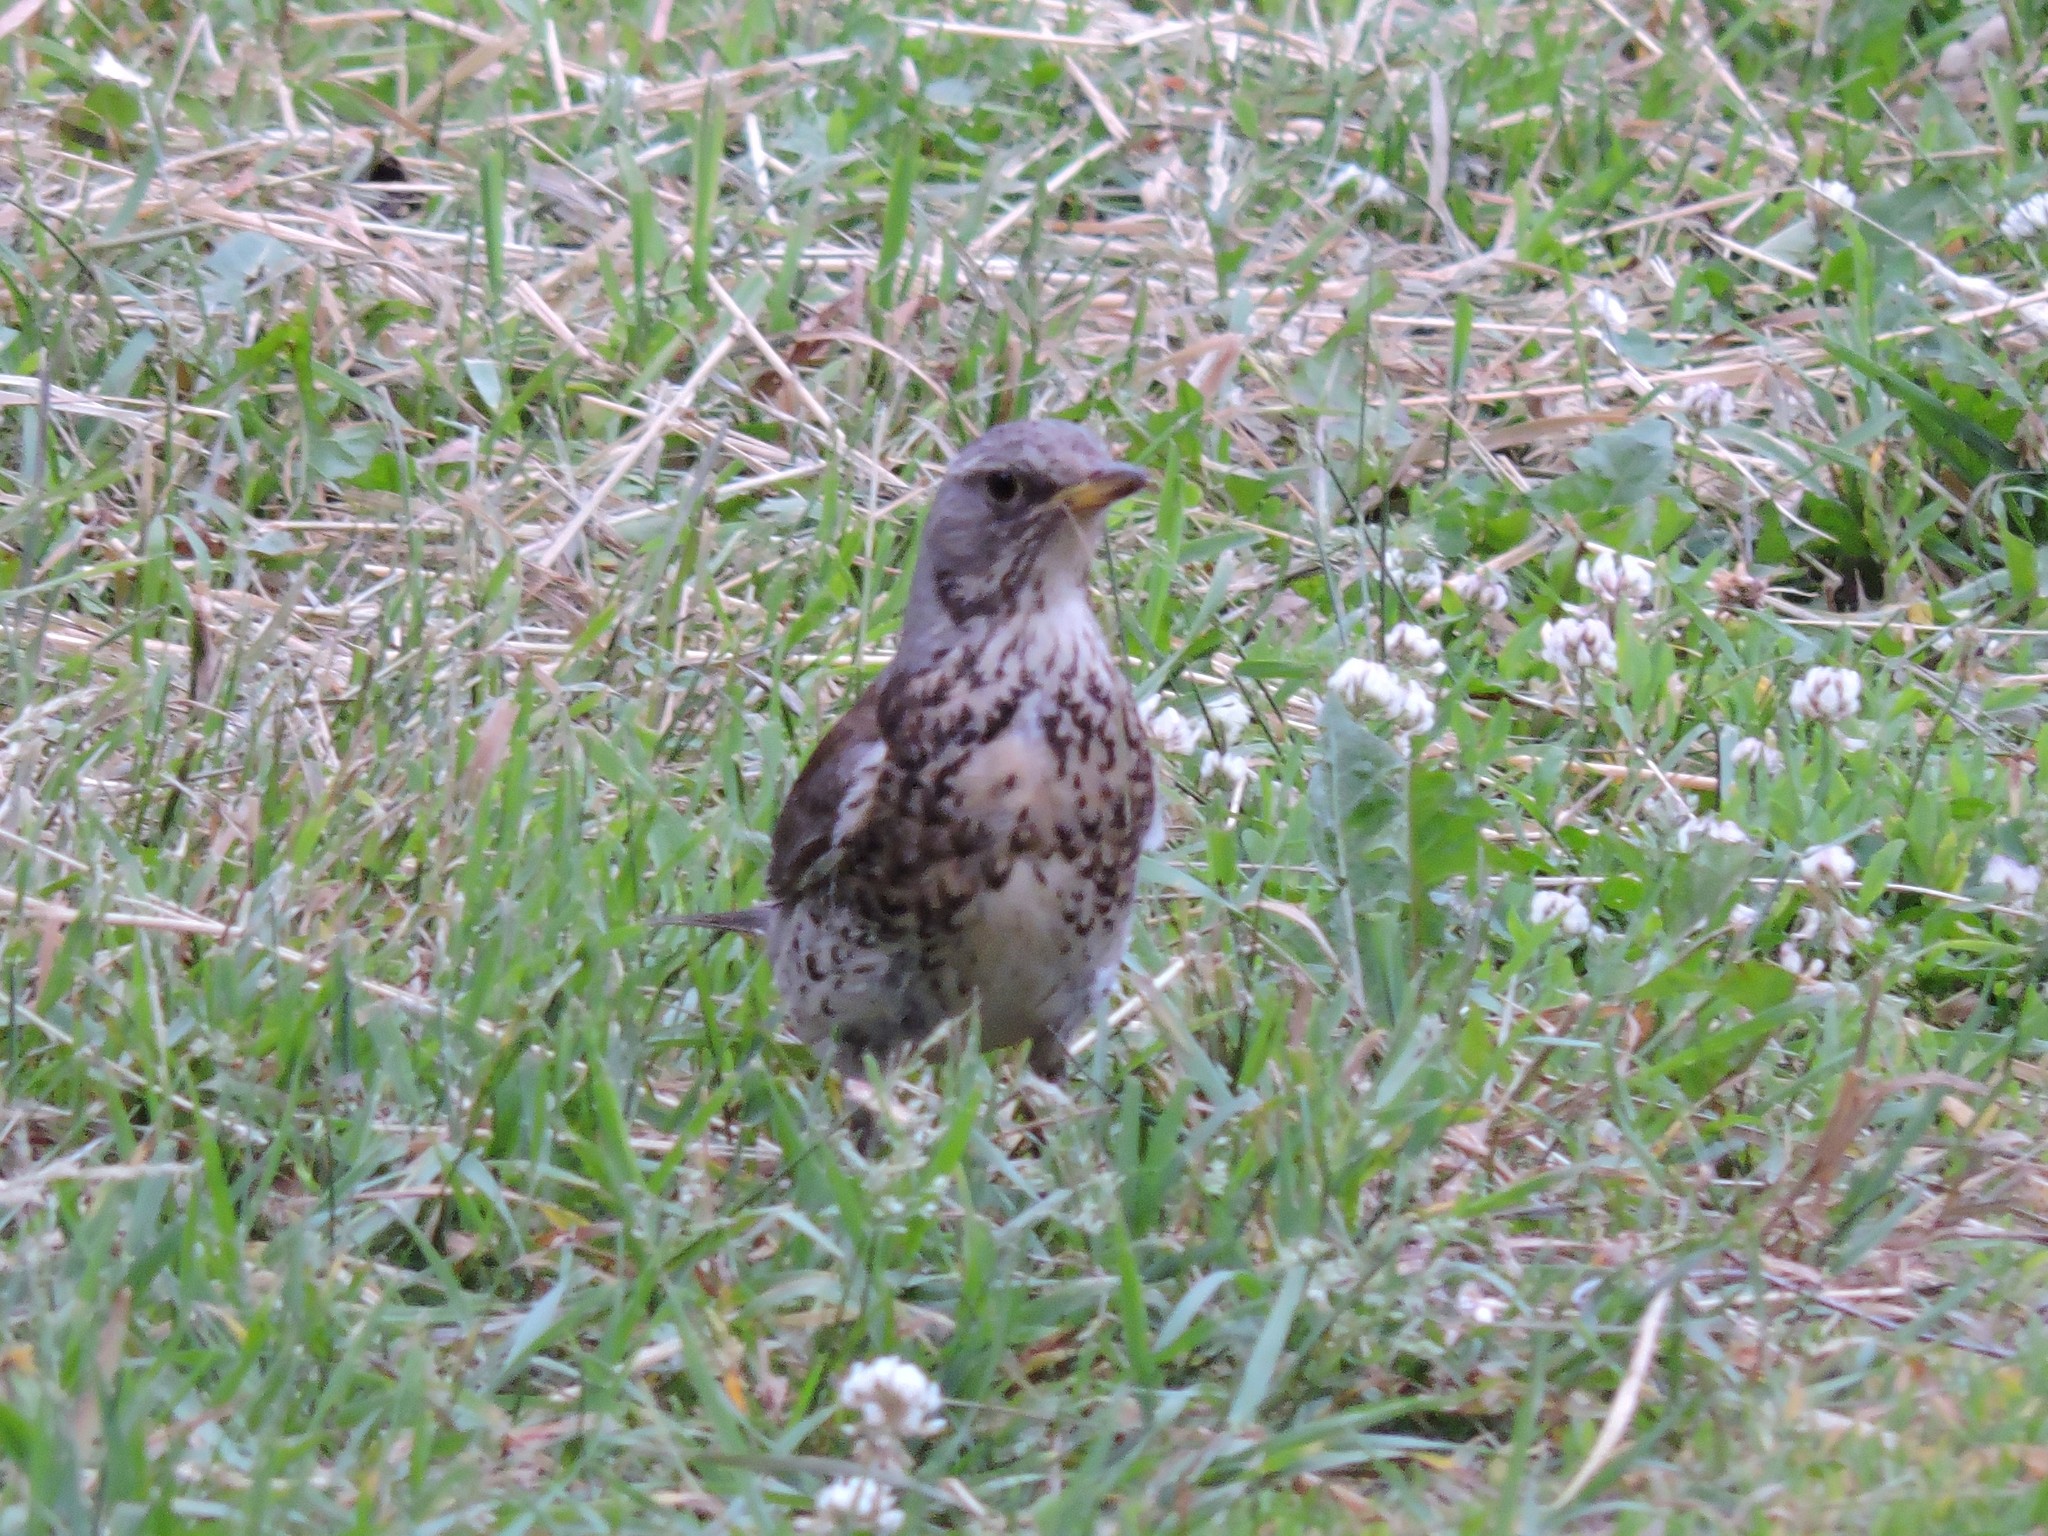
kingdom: Animalia
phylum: Chordata
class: Aves
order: Passeriformes
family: Turdidae
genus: Turdus
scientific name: Turdus pilaris
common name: Fieldfare
